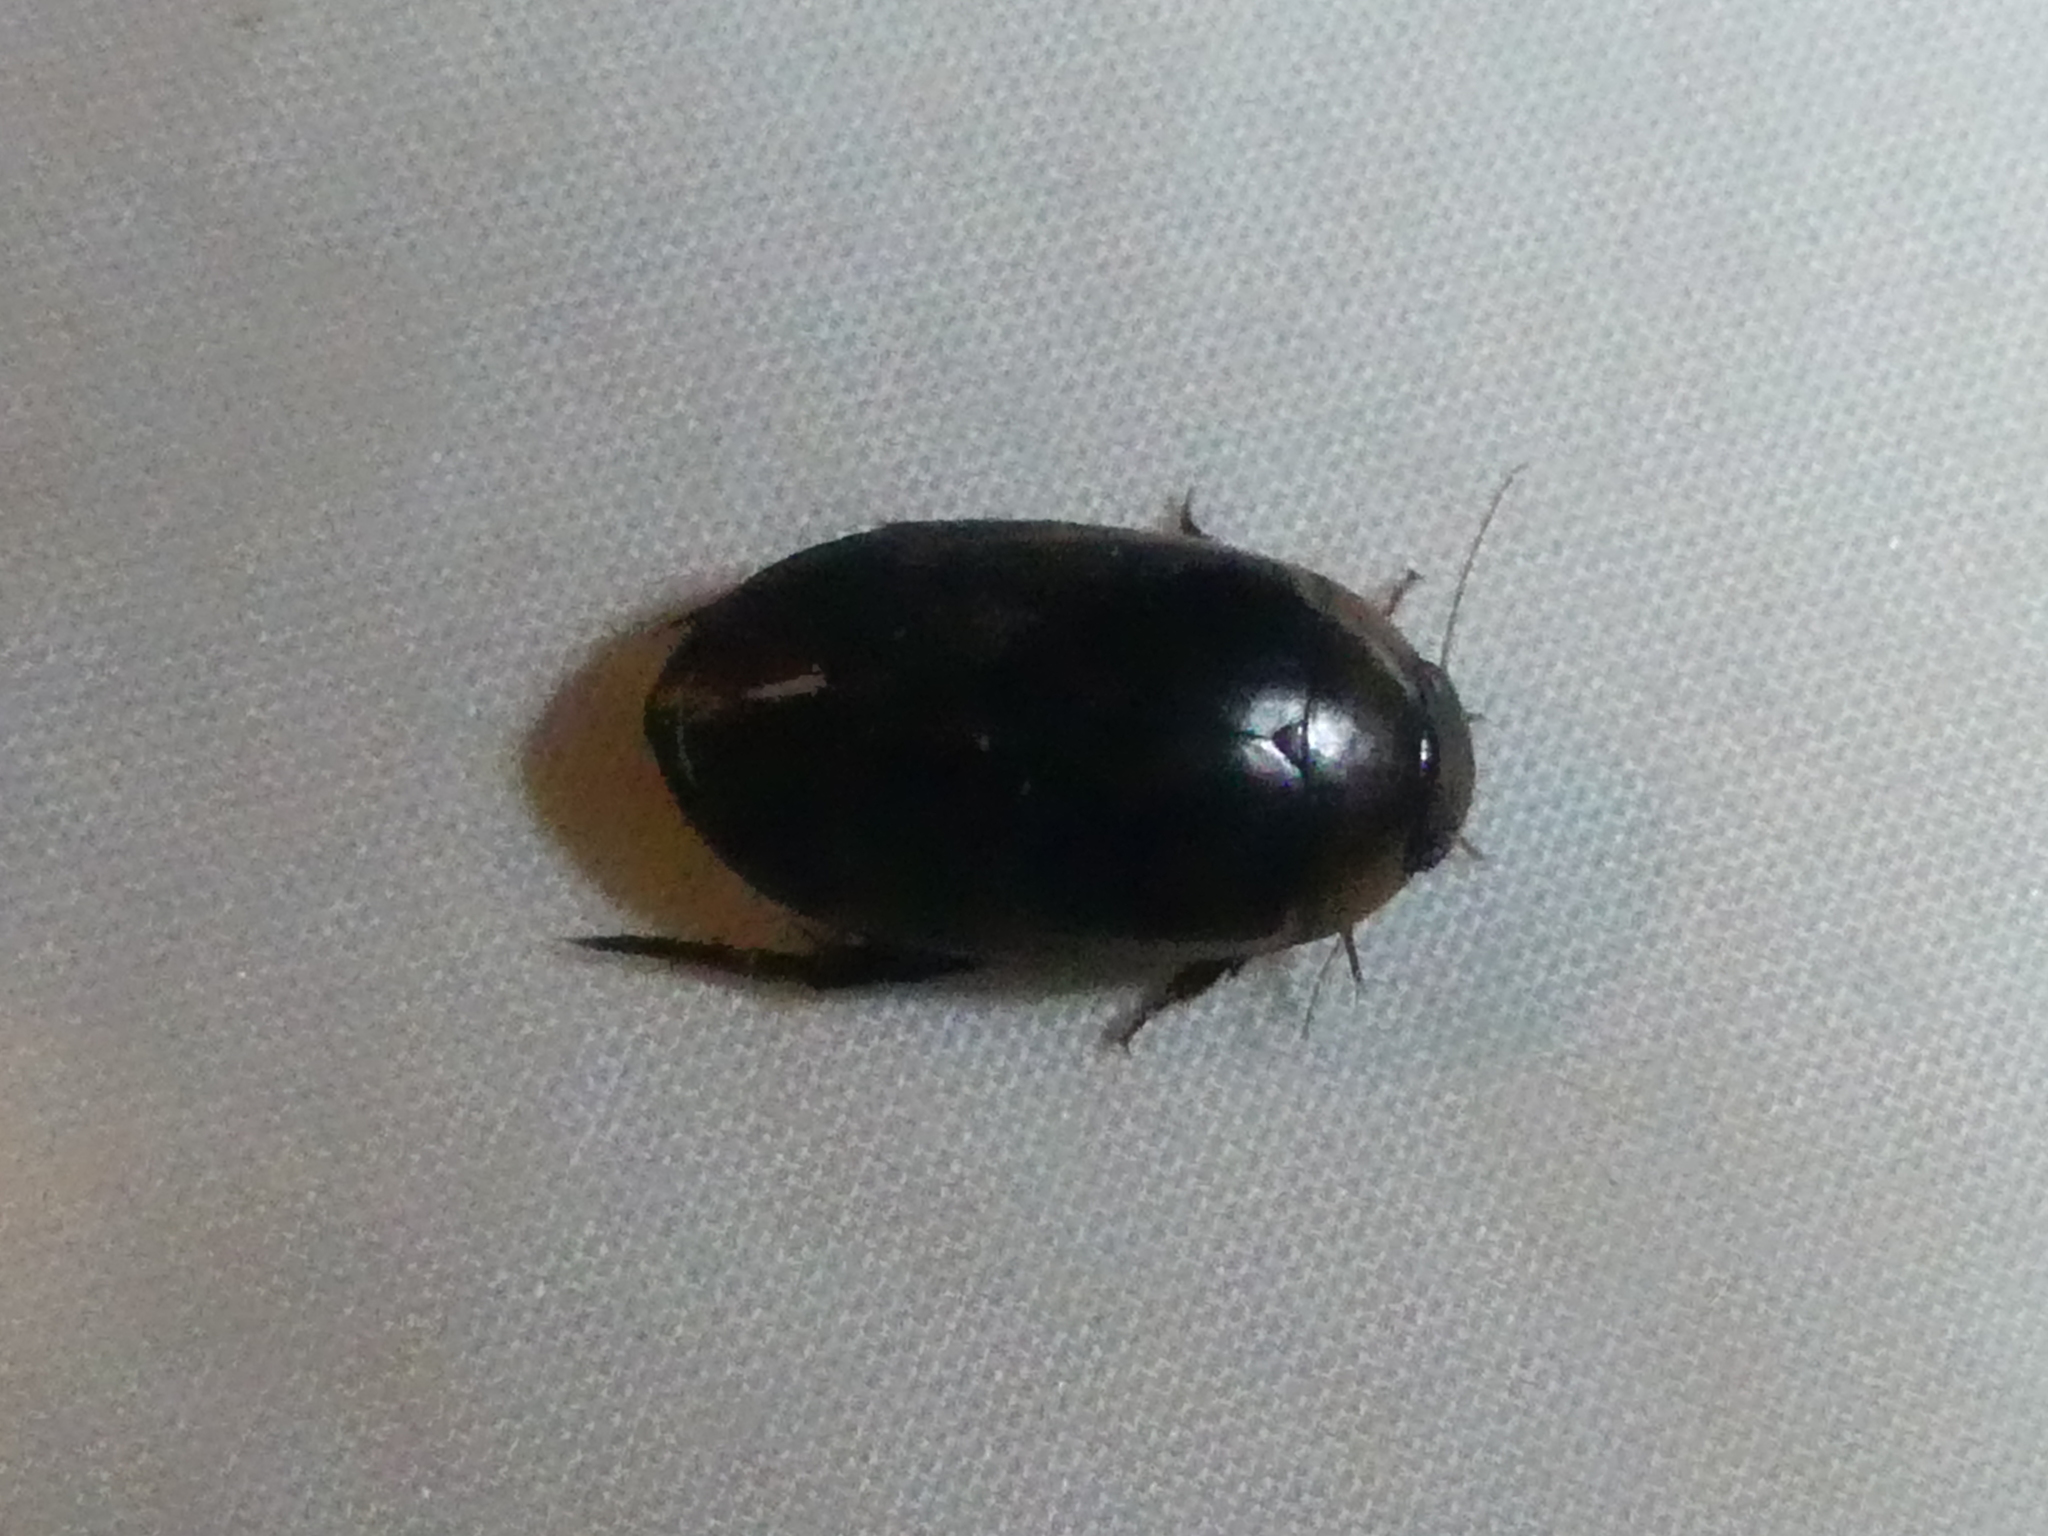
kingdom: Animalia
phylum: Arthropoda
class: Insecta
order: Coleoptera
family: Dytiscidae
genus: Hydaticus
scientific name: Hydaticus bimarginatus
